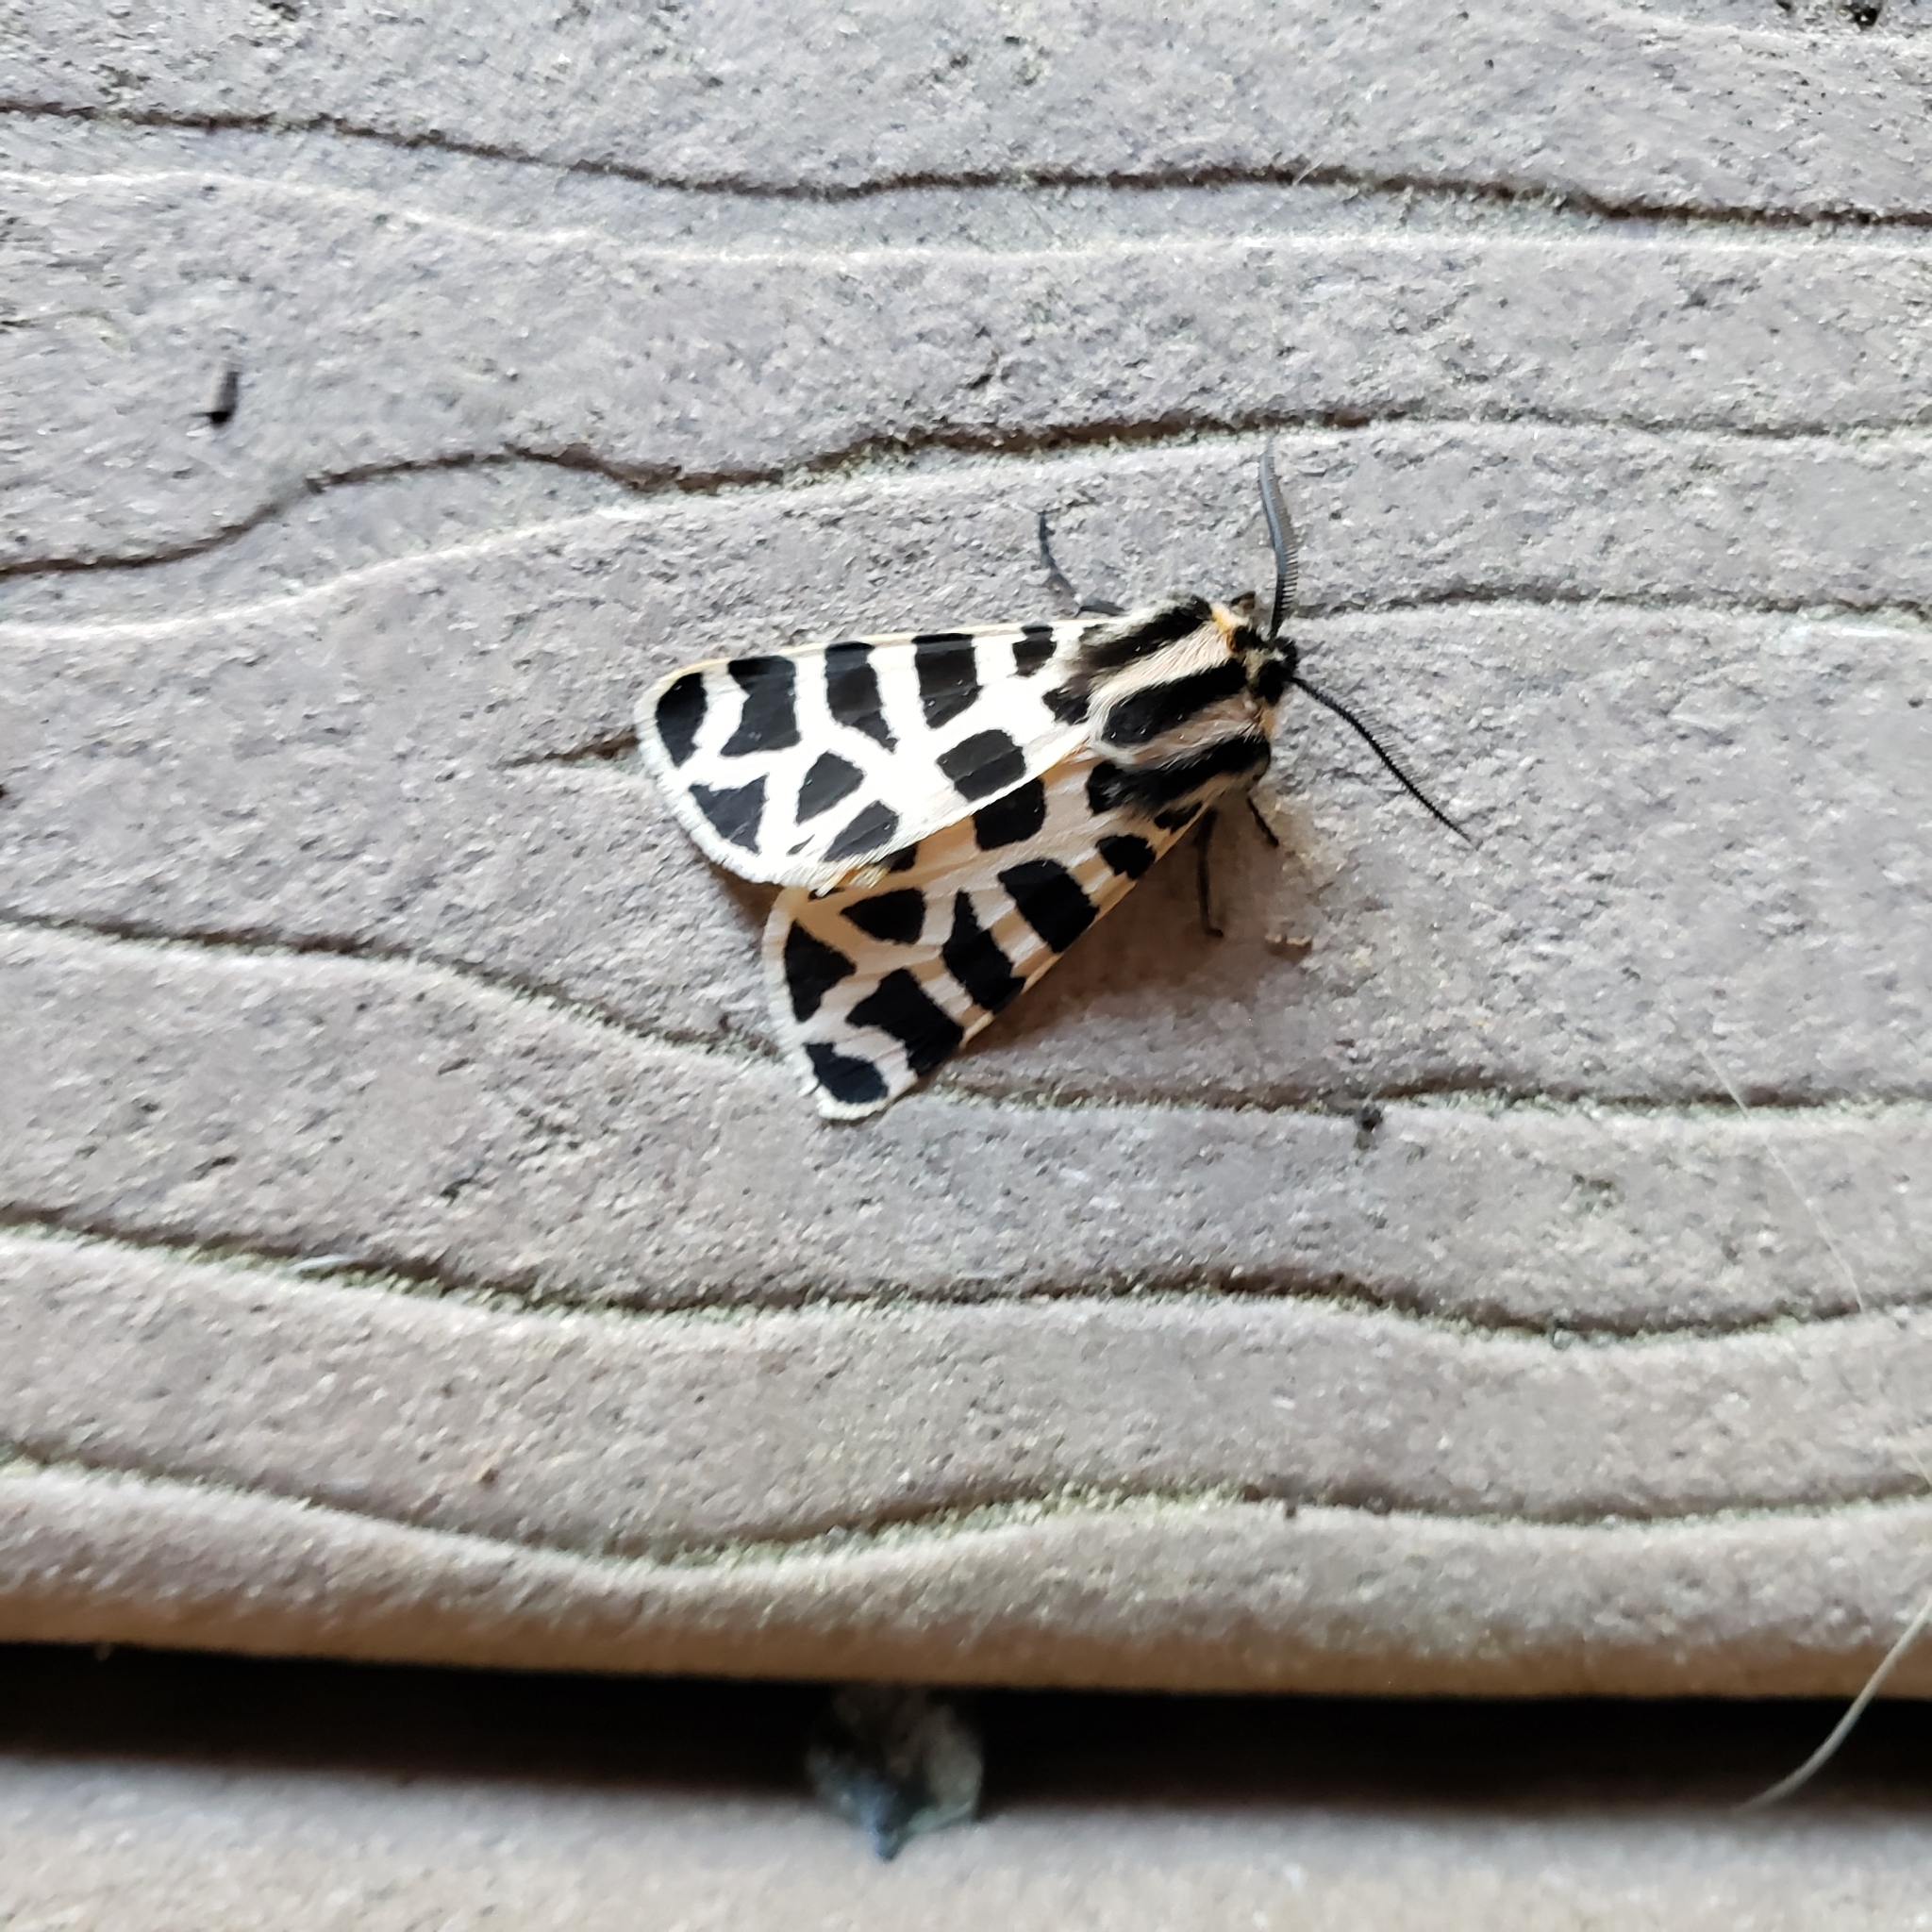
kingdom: Animalia
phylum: Arthropoda
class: Insecta
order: Lepidoptera
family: Erebidae
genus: Apantesis
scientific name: Apantesis incorrupta
